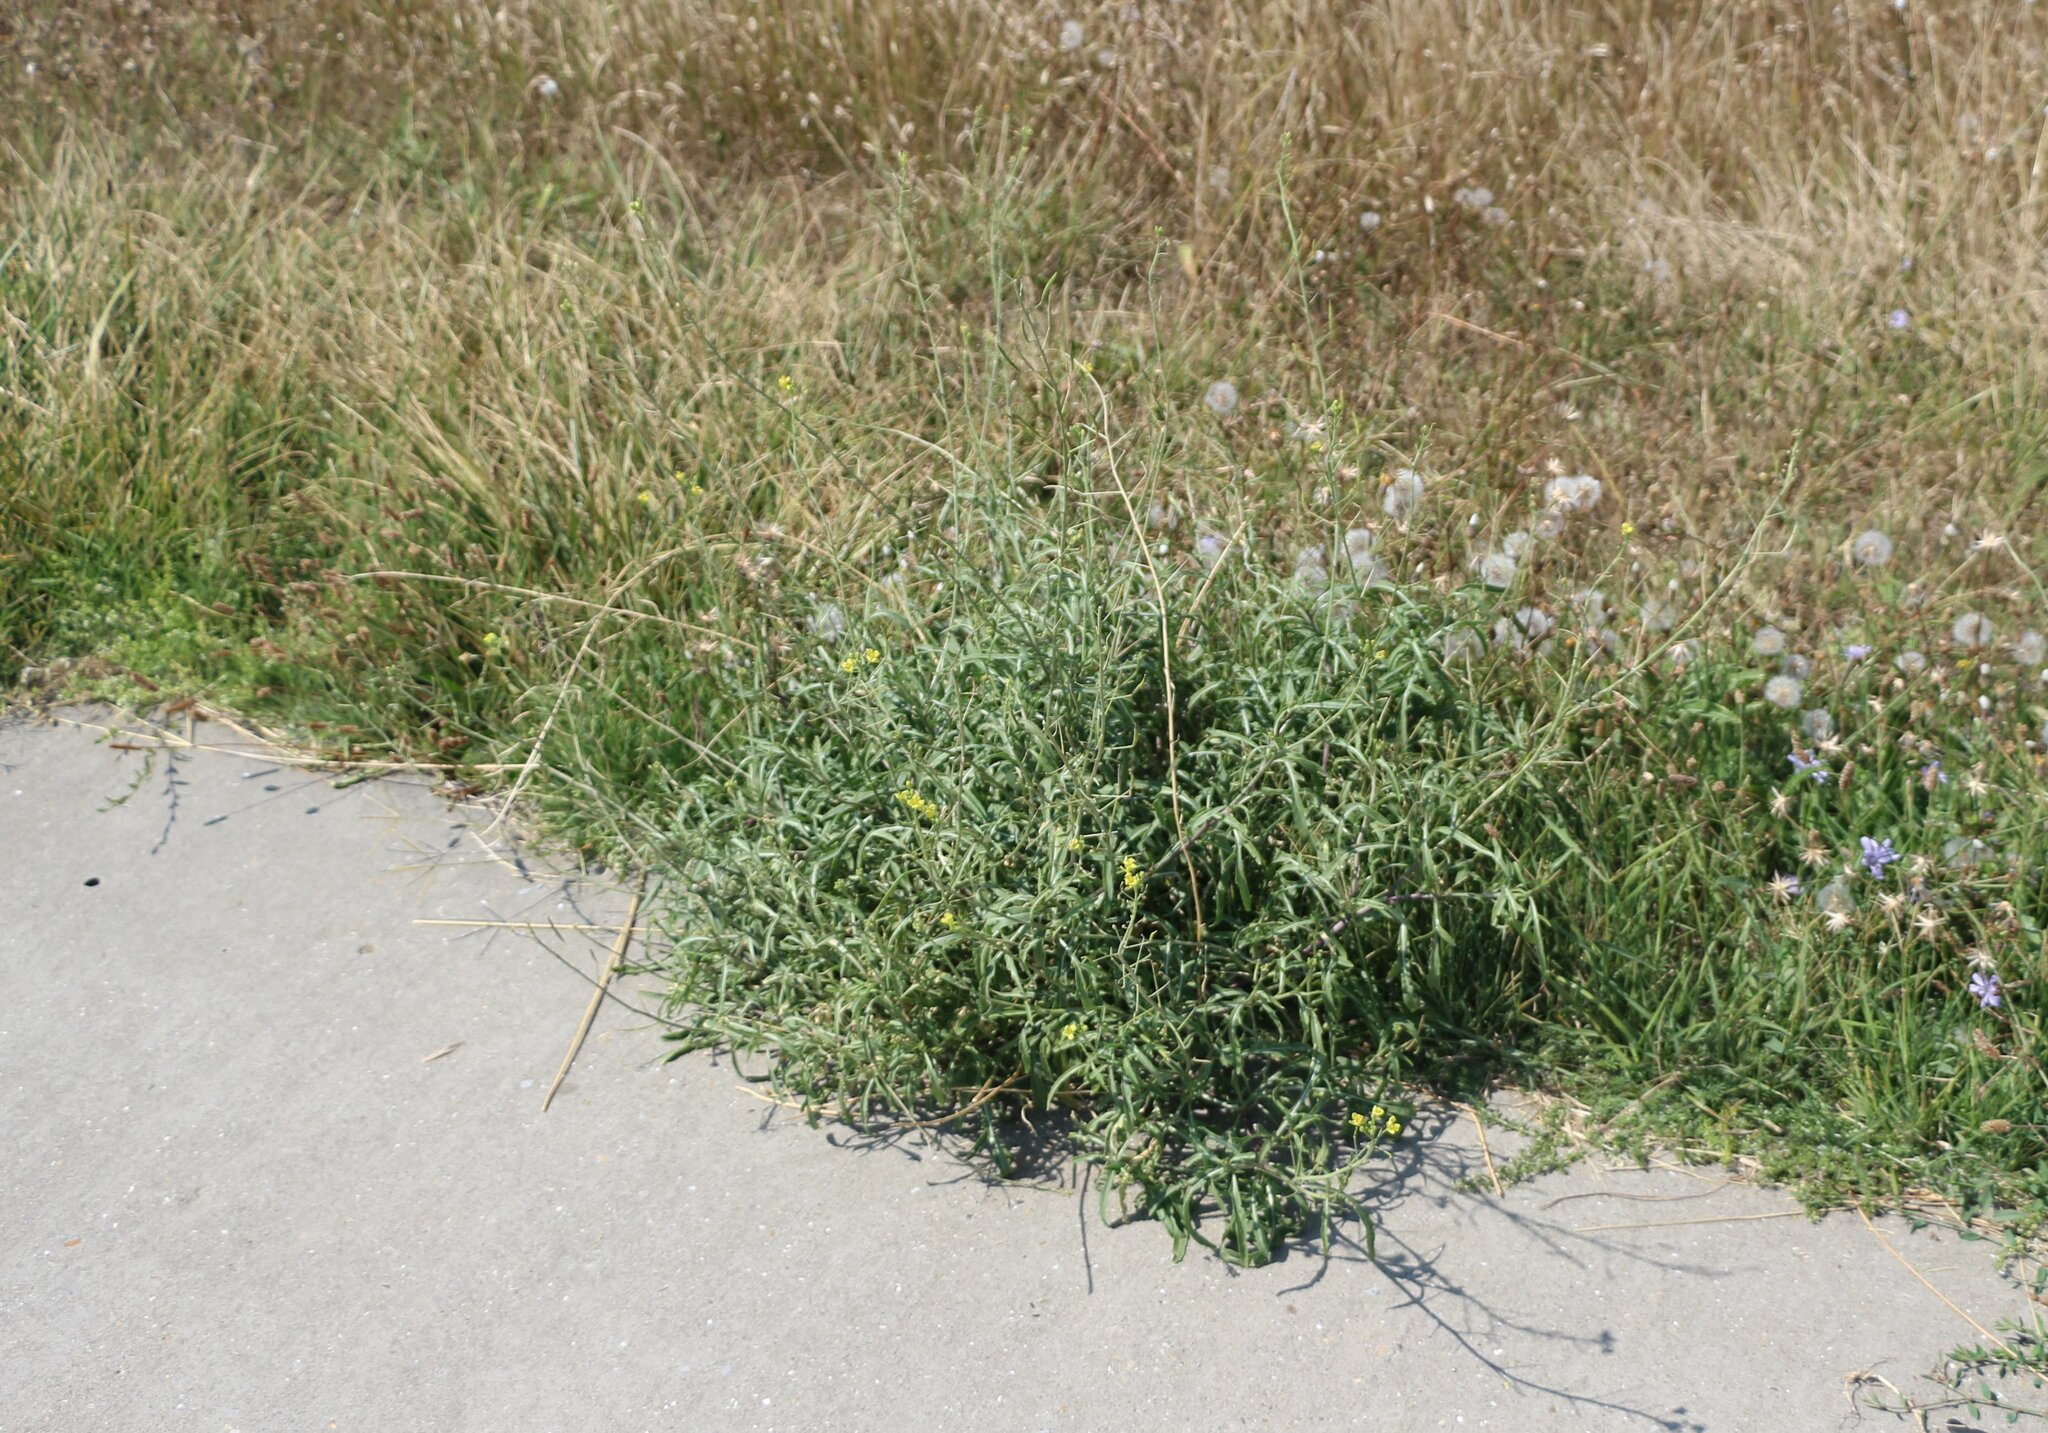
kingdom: Plantae
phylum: Tracheophyta
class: Magnoliopsida
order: Brassicales
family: Brassicaceae
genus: Diplotaxis
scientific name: Diplotaxis tenuifolia
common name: Perennial wall-rocket
